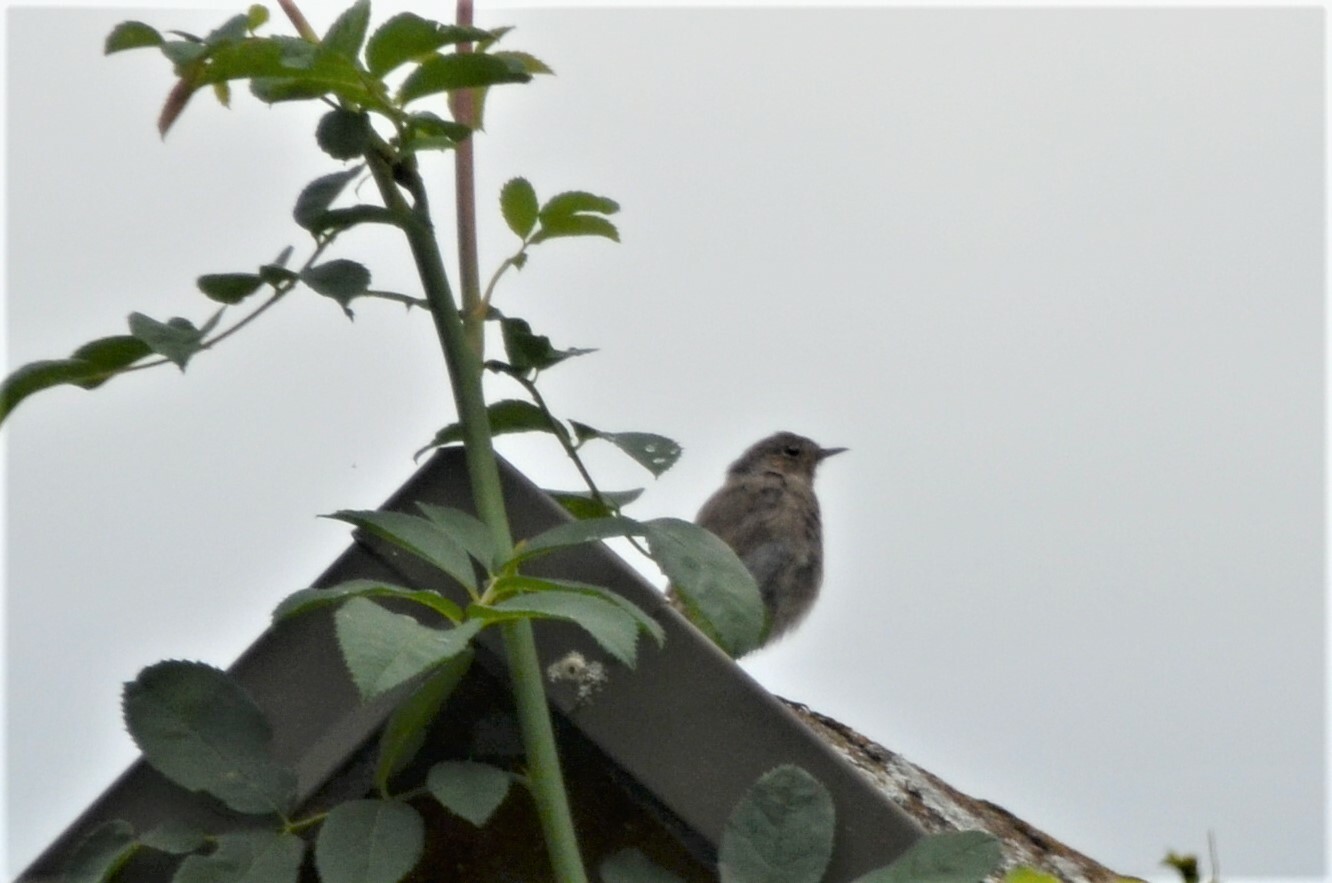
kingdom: Animalia
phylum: Chordata
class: Aves
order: Passeriformes
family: Muscicapidae
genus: Phoenicurus
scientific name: Phoenicurus ochruros
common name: Black redstart
